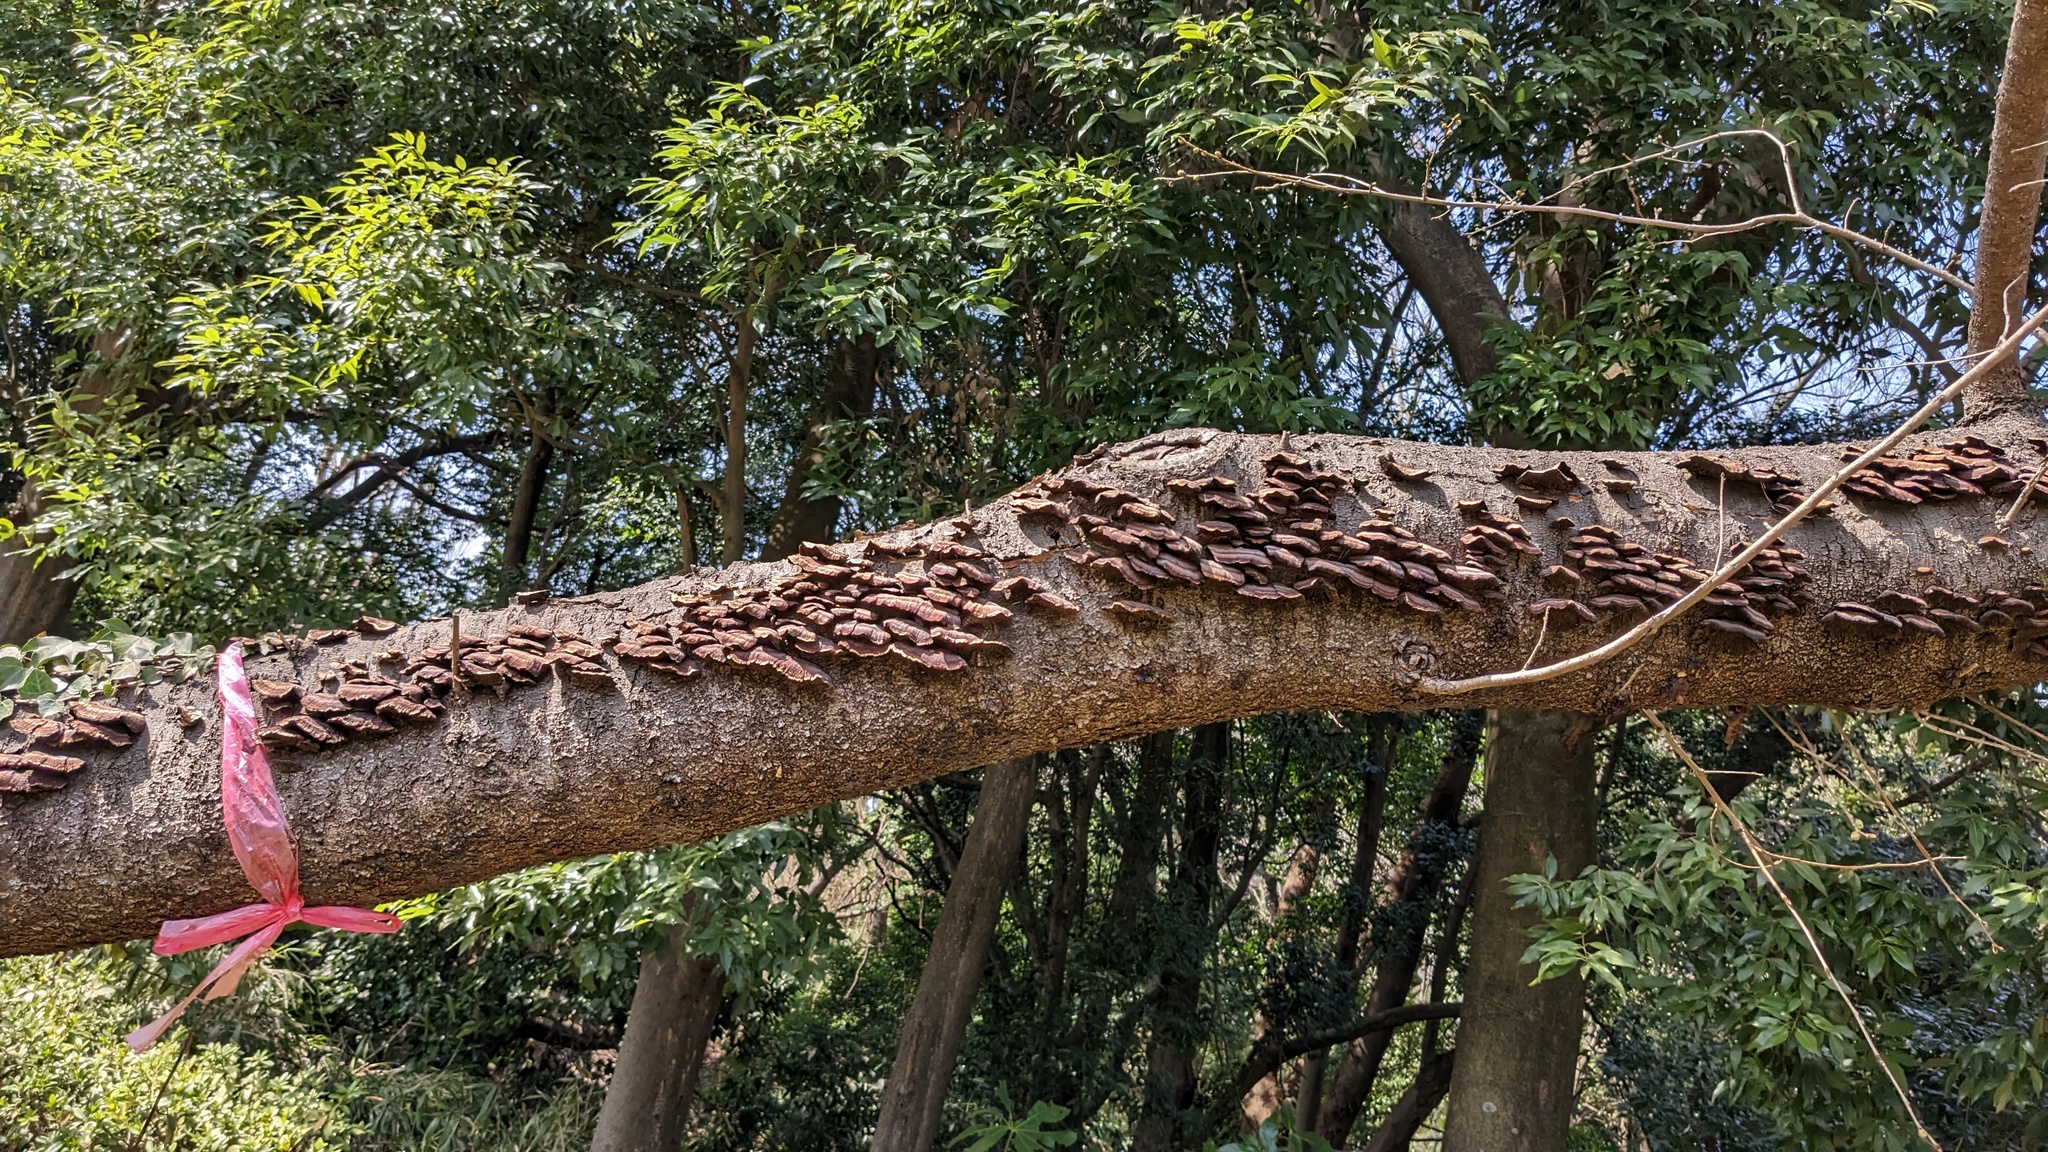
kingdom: Fungi
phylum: Basidiomycota
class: Agaricomycetes
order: Polyporales
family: Polyporaceae
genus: Daedaleopsis
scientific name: Daedaleopsis tricolor
